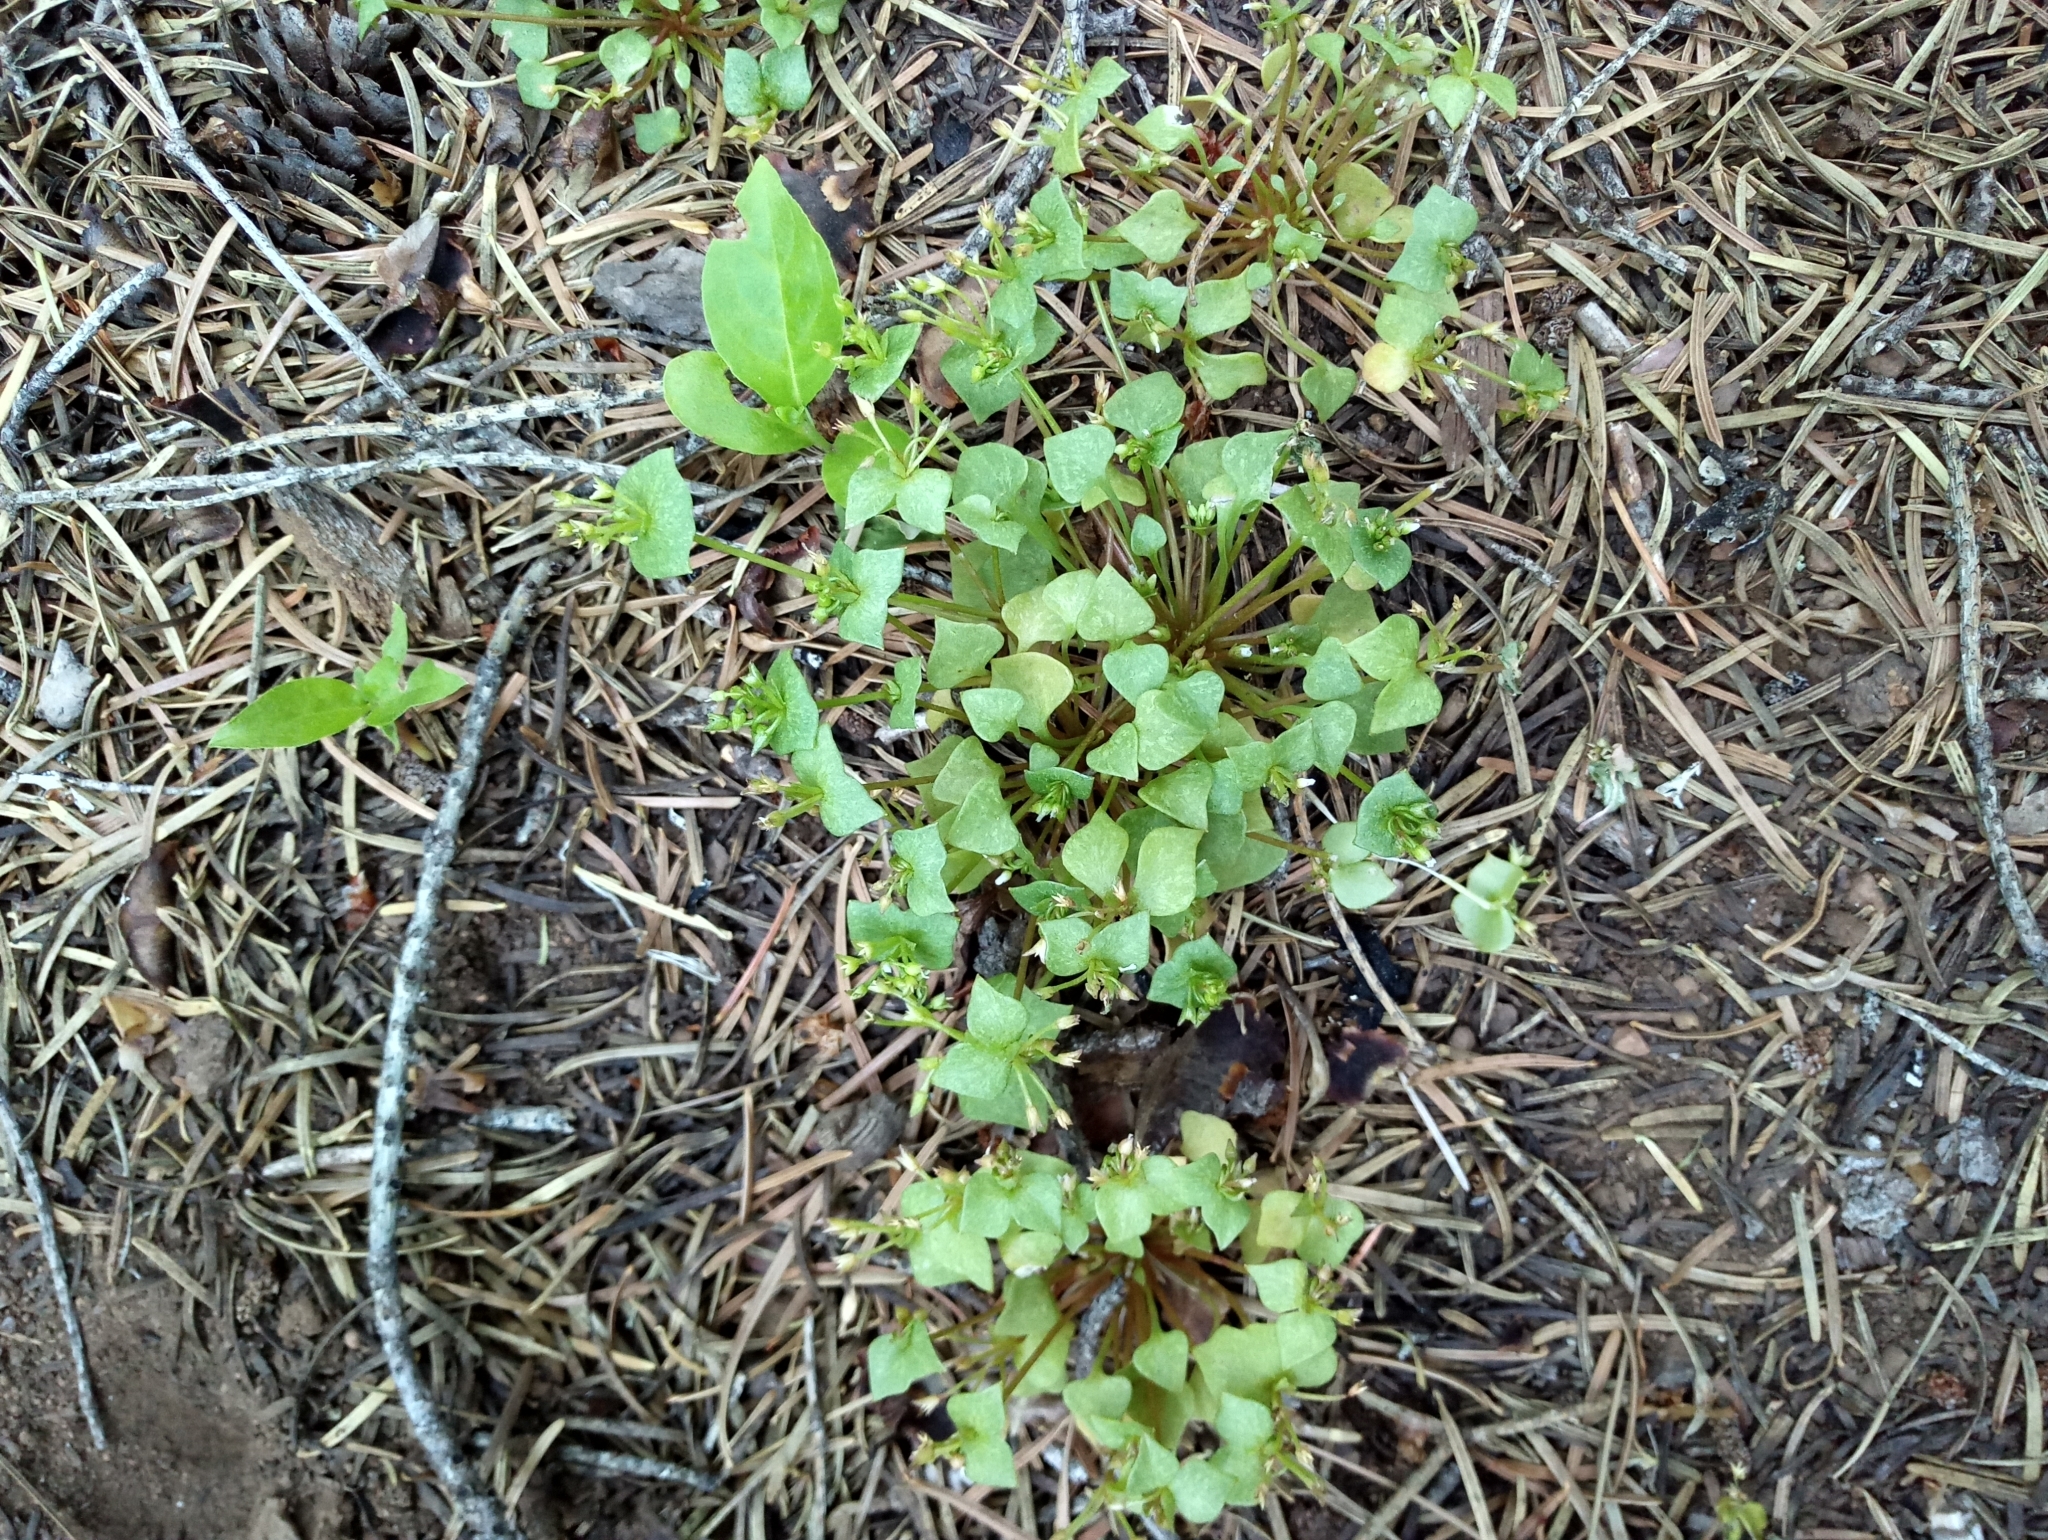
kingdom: Plantae
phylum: Tracheophyta
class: Magnoliopsida
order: Caryophyllales
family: Montiaceae
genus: Claytonia
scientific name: Claytonia rubra
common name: Erubescent miner's-lettuce
